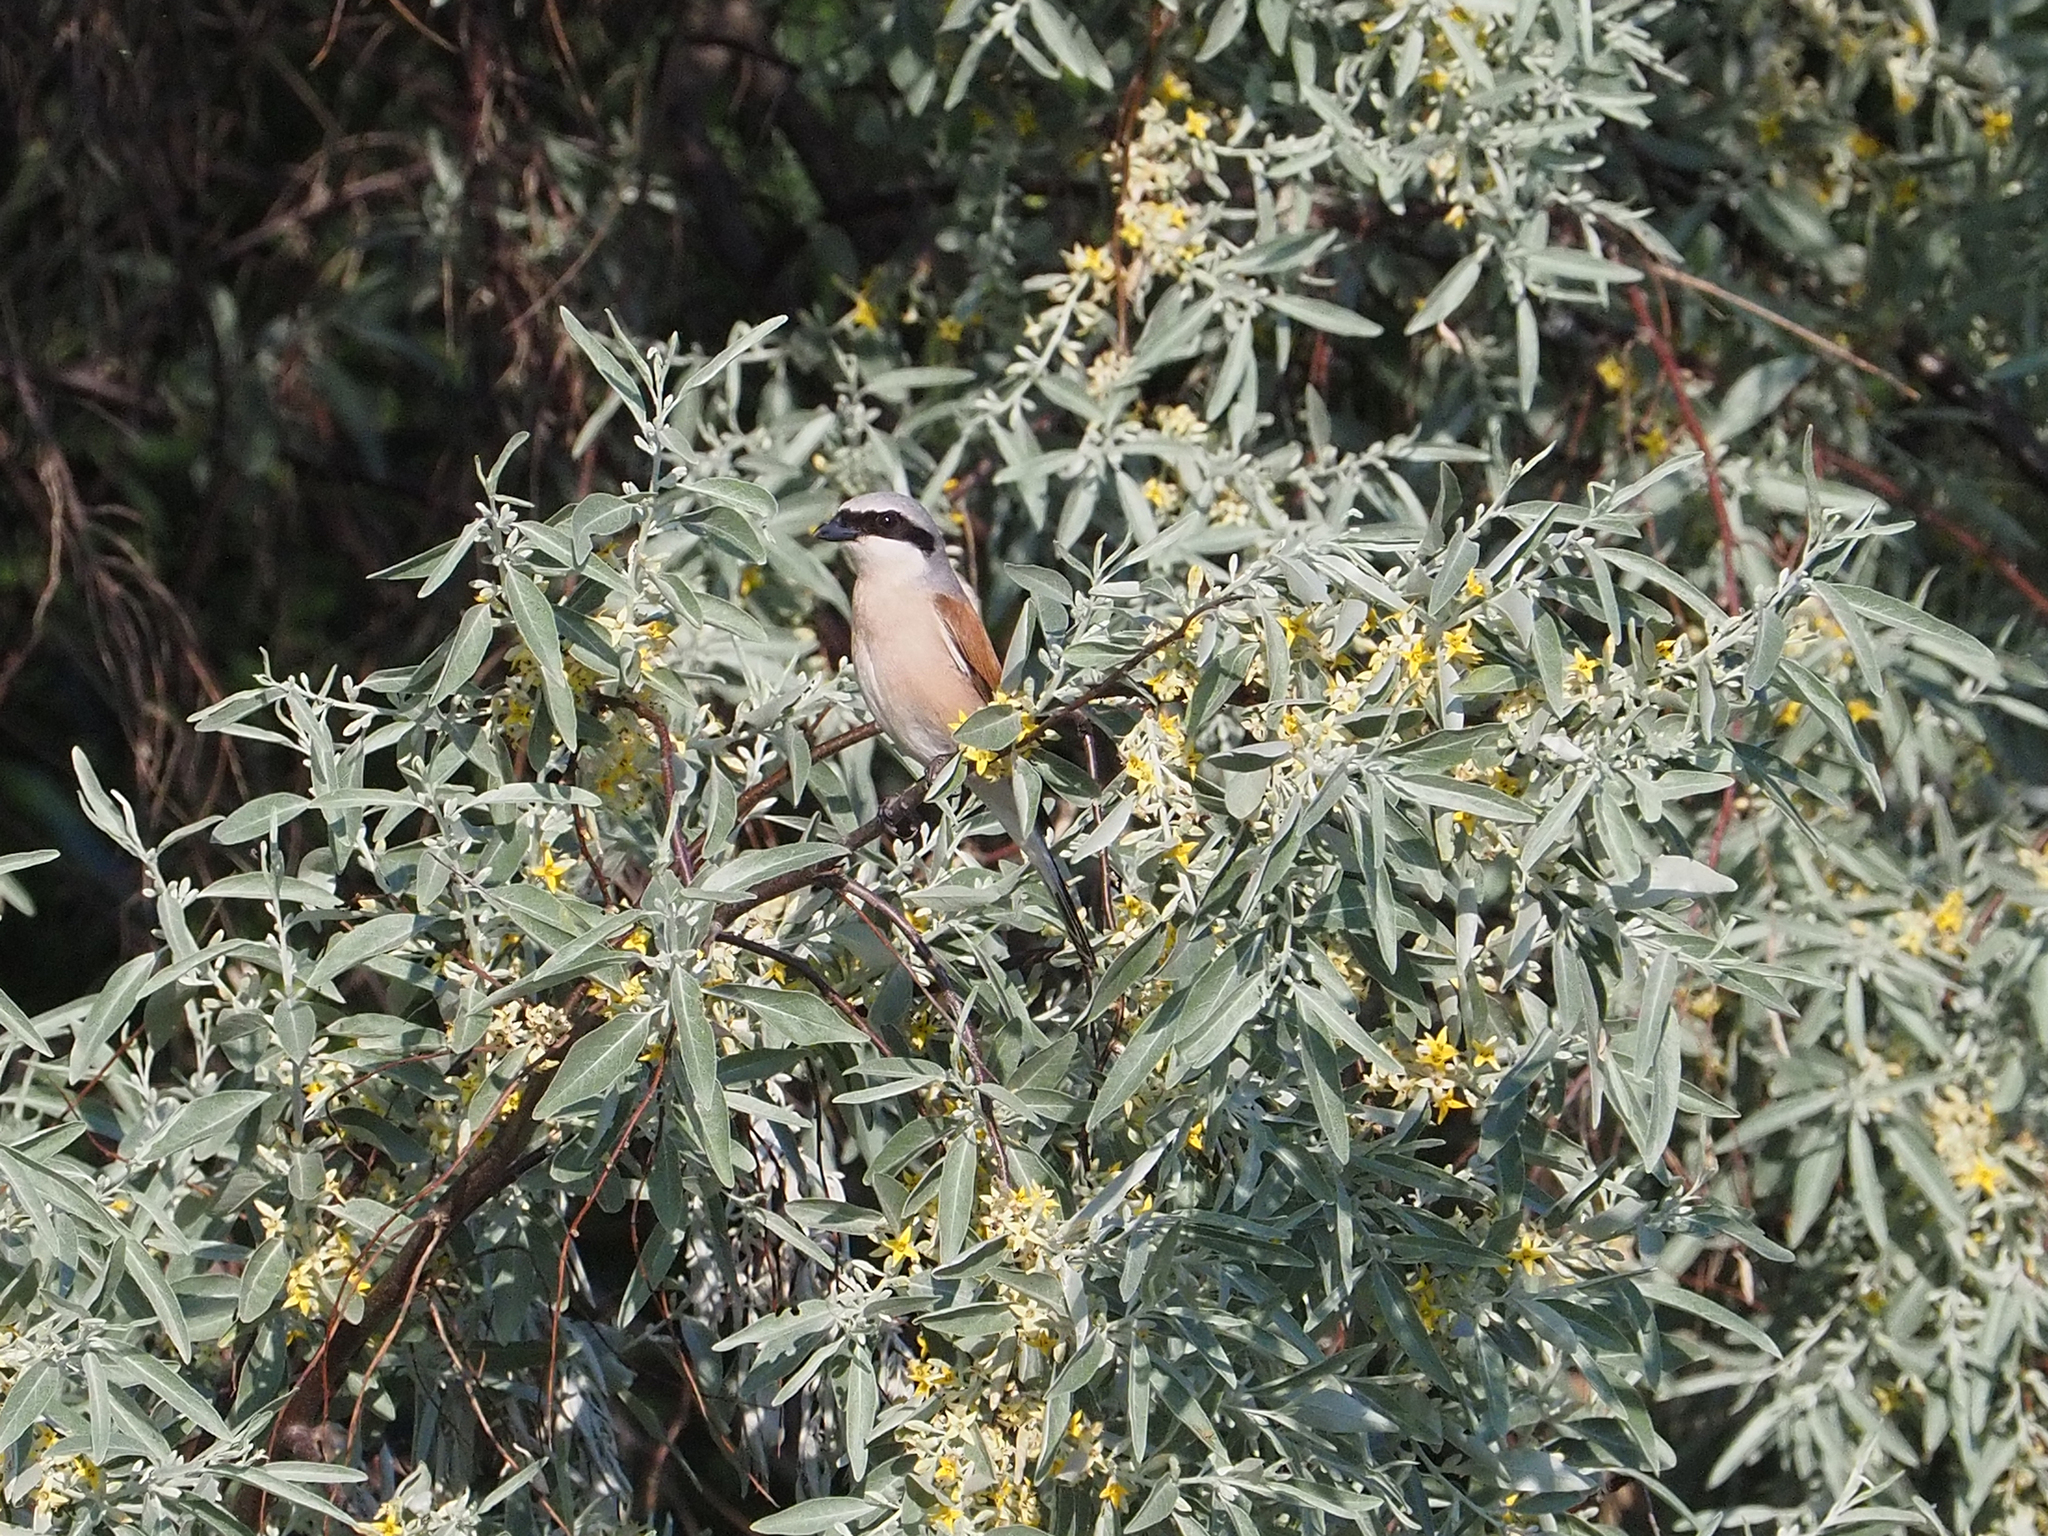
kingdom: Animalia
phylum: Chordata
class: Aves
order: Passeriformes
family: Laniidae
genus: Lanius
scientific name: Lanius collurio
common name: Red-backed shrike
